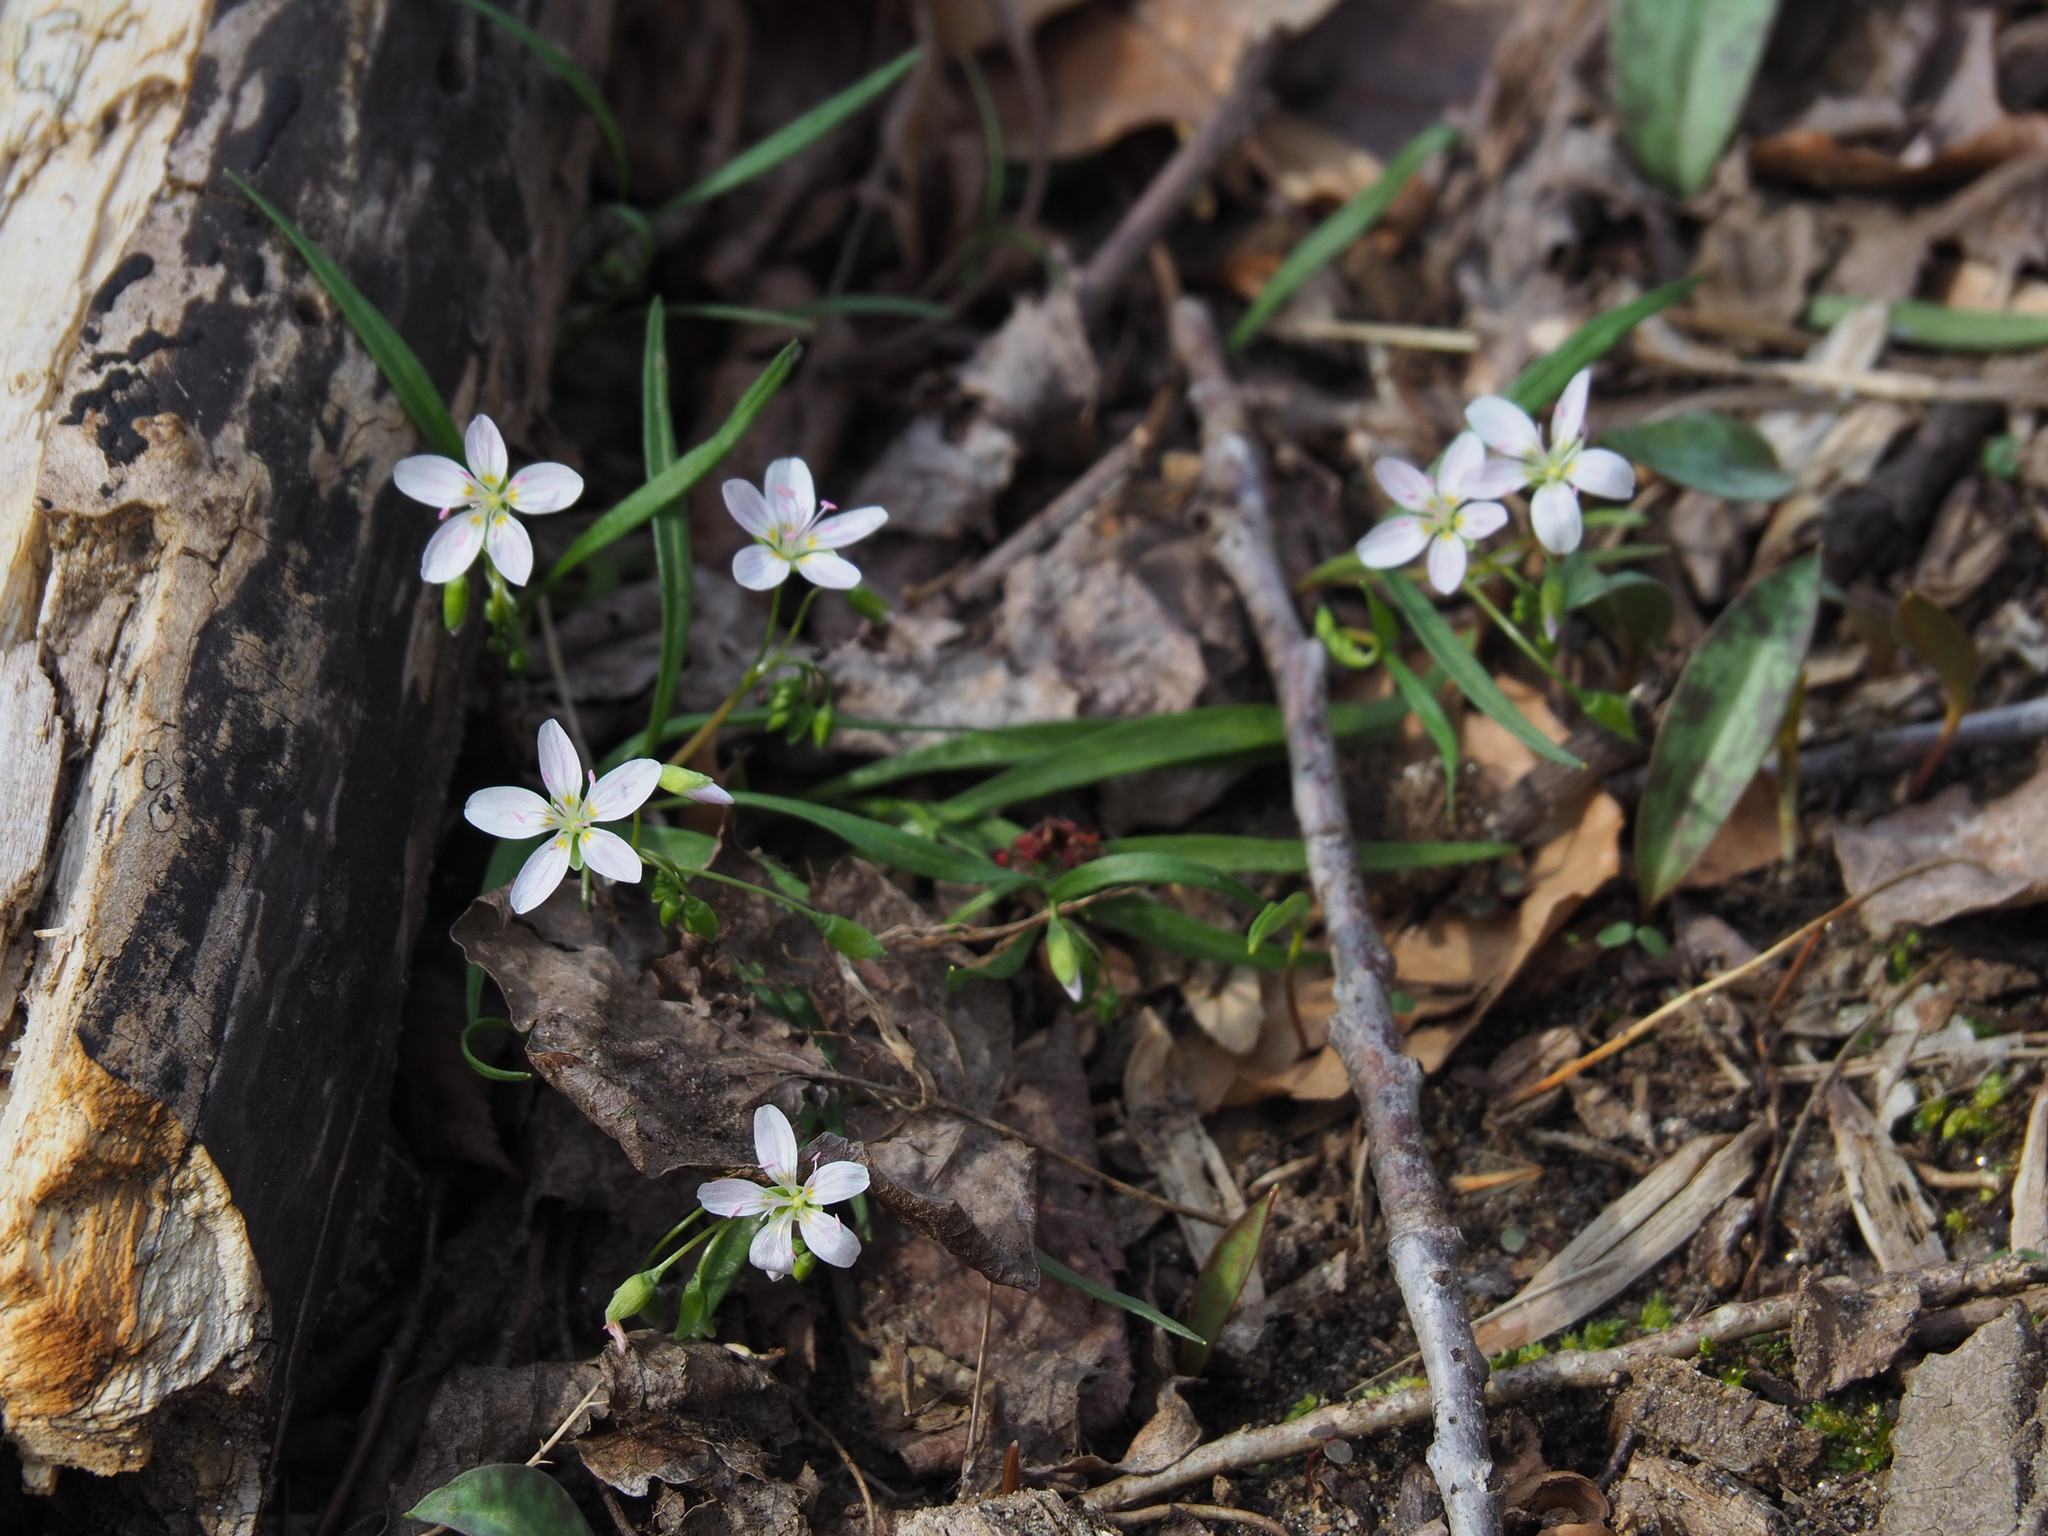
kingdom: Plantae
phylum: Tracheophyta
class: Magnoliopsida
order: Caryophyllales
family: Montiaceae
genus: Claytonia
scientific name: Claytonia virginica
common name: Virginia springbeauty
